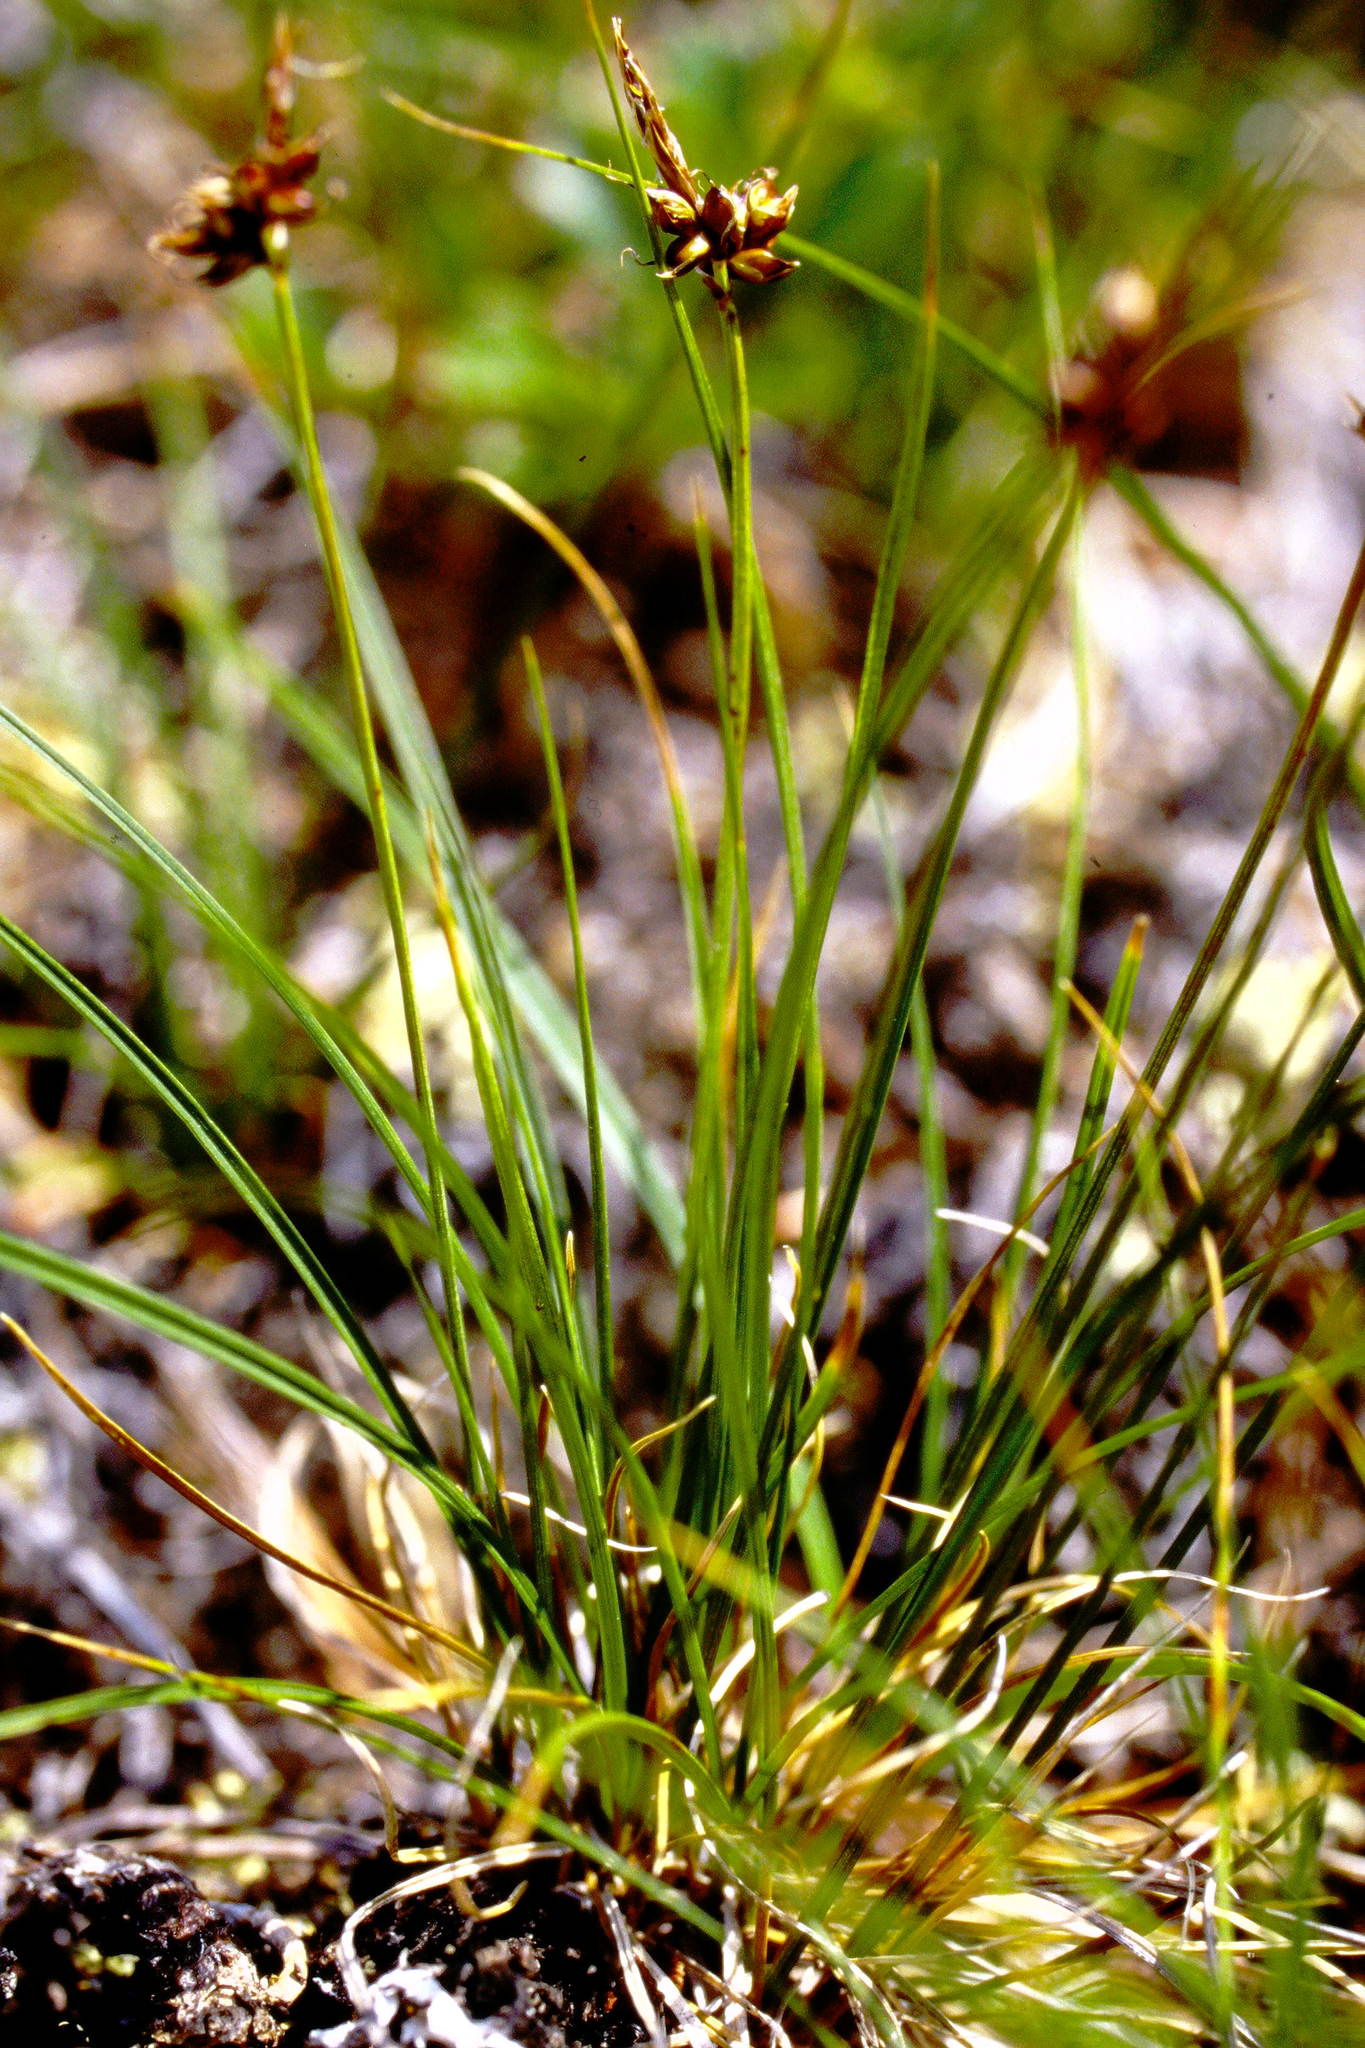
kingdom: Plantae
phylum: Tracheophyta
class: Liliopsida
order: Poales
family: Cyperaceae
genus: Carex
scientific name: Carex supina
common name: Lying-back sedge
